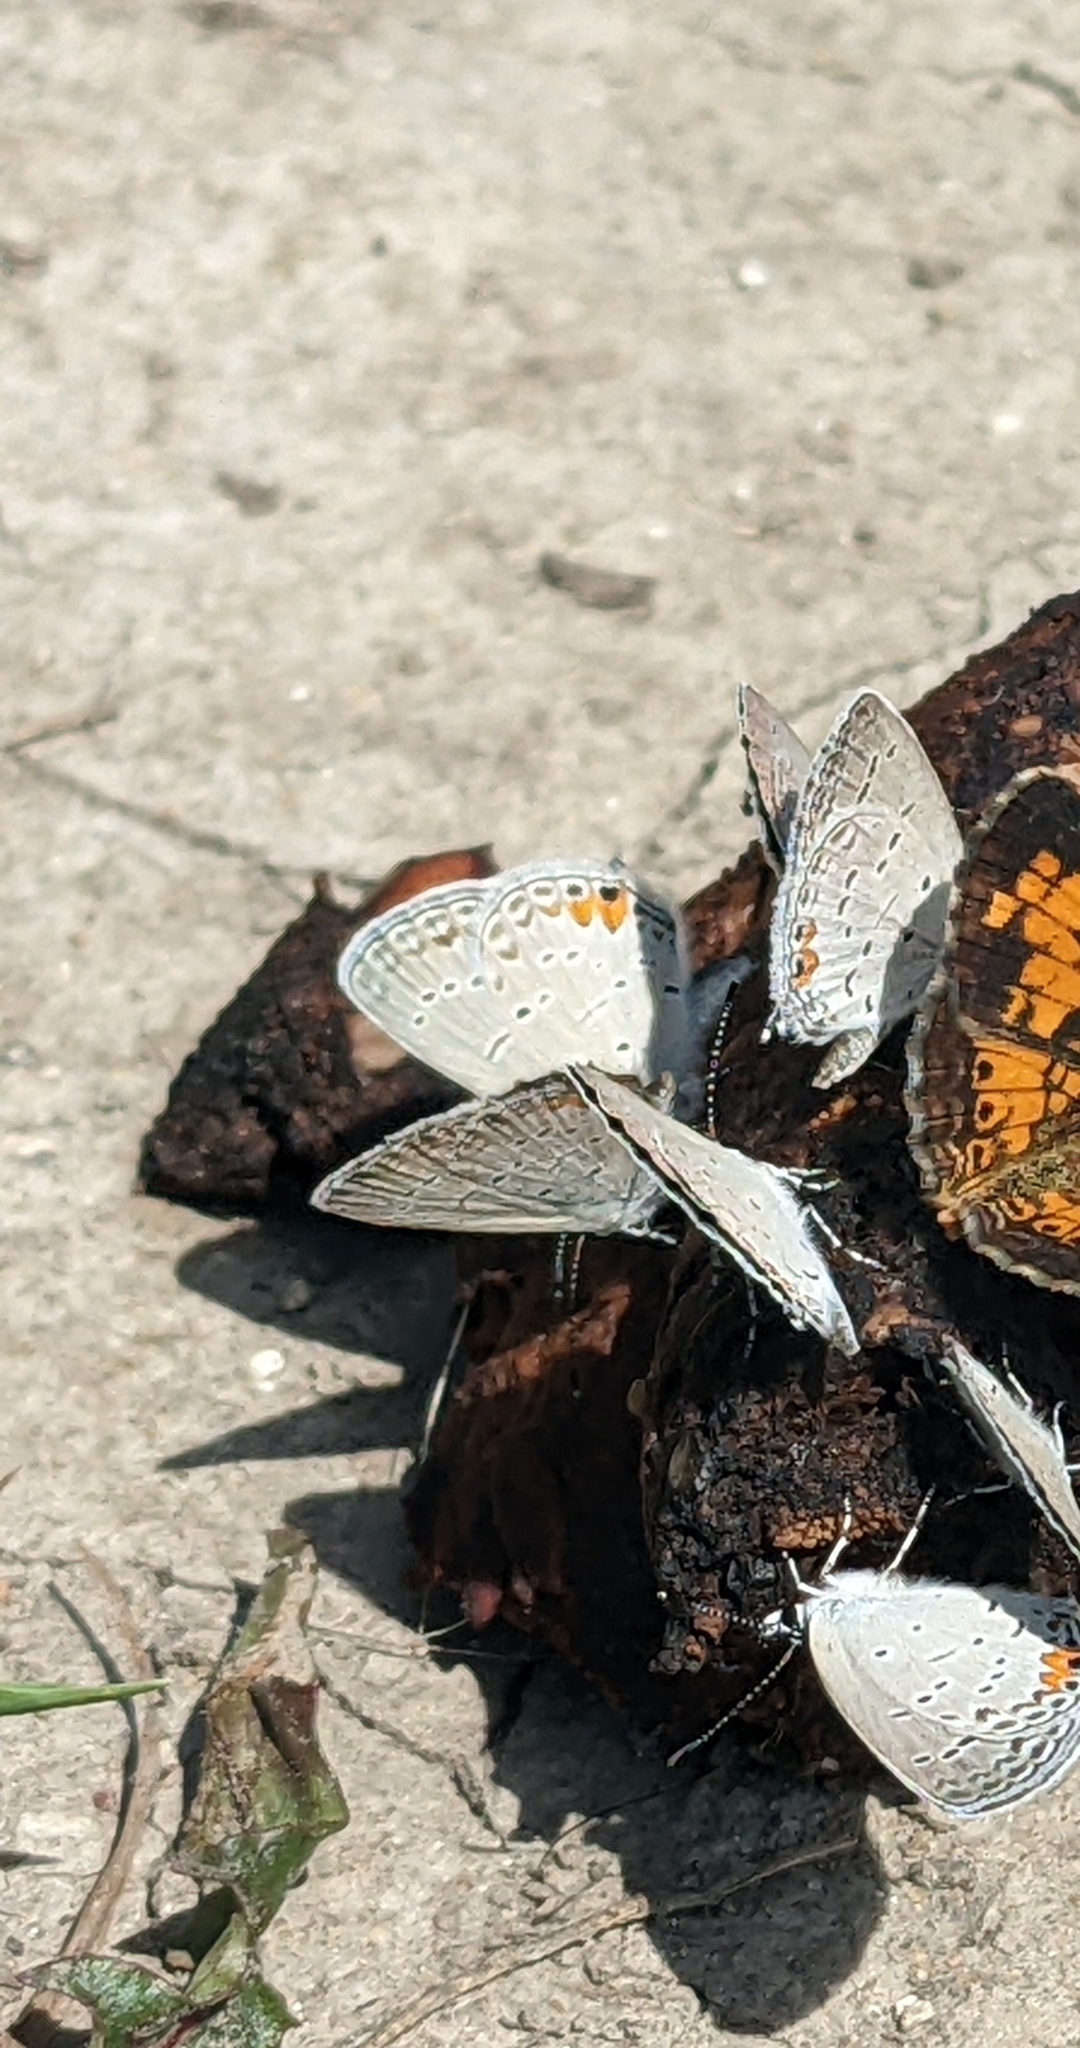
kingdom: Animalia
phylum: Arthropoda
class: Insecta
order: Lepidoptera
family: Lycaenidae
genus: Elkalyce
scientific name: Elkalyce comyntas
